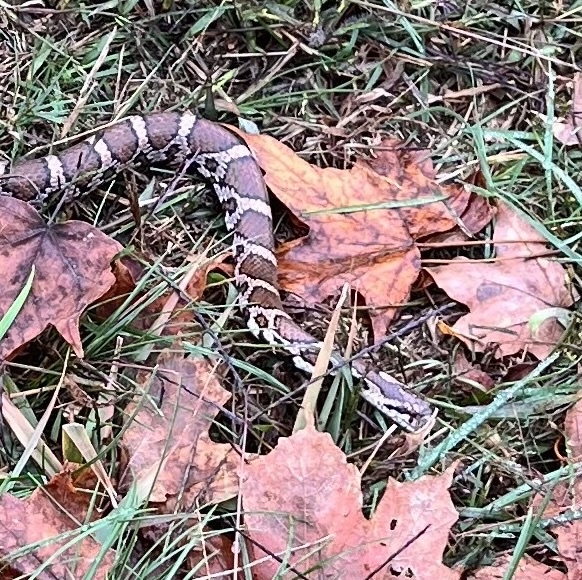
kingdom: Animalia
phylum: Chordata
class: Squamata
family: Colubridae
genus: Lampropeltis
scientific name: Lampropeltis triangulum
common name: Eastern milksnake
